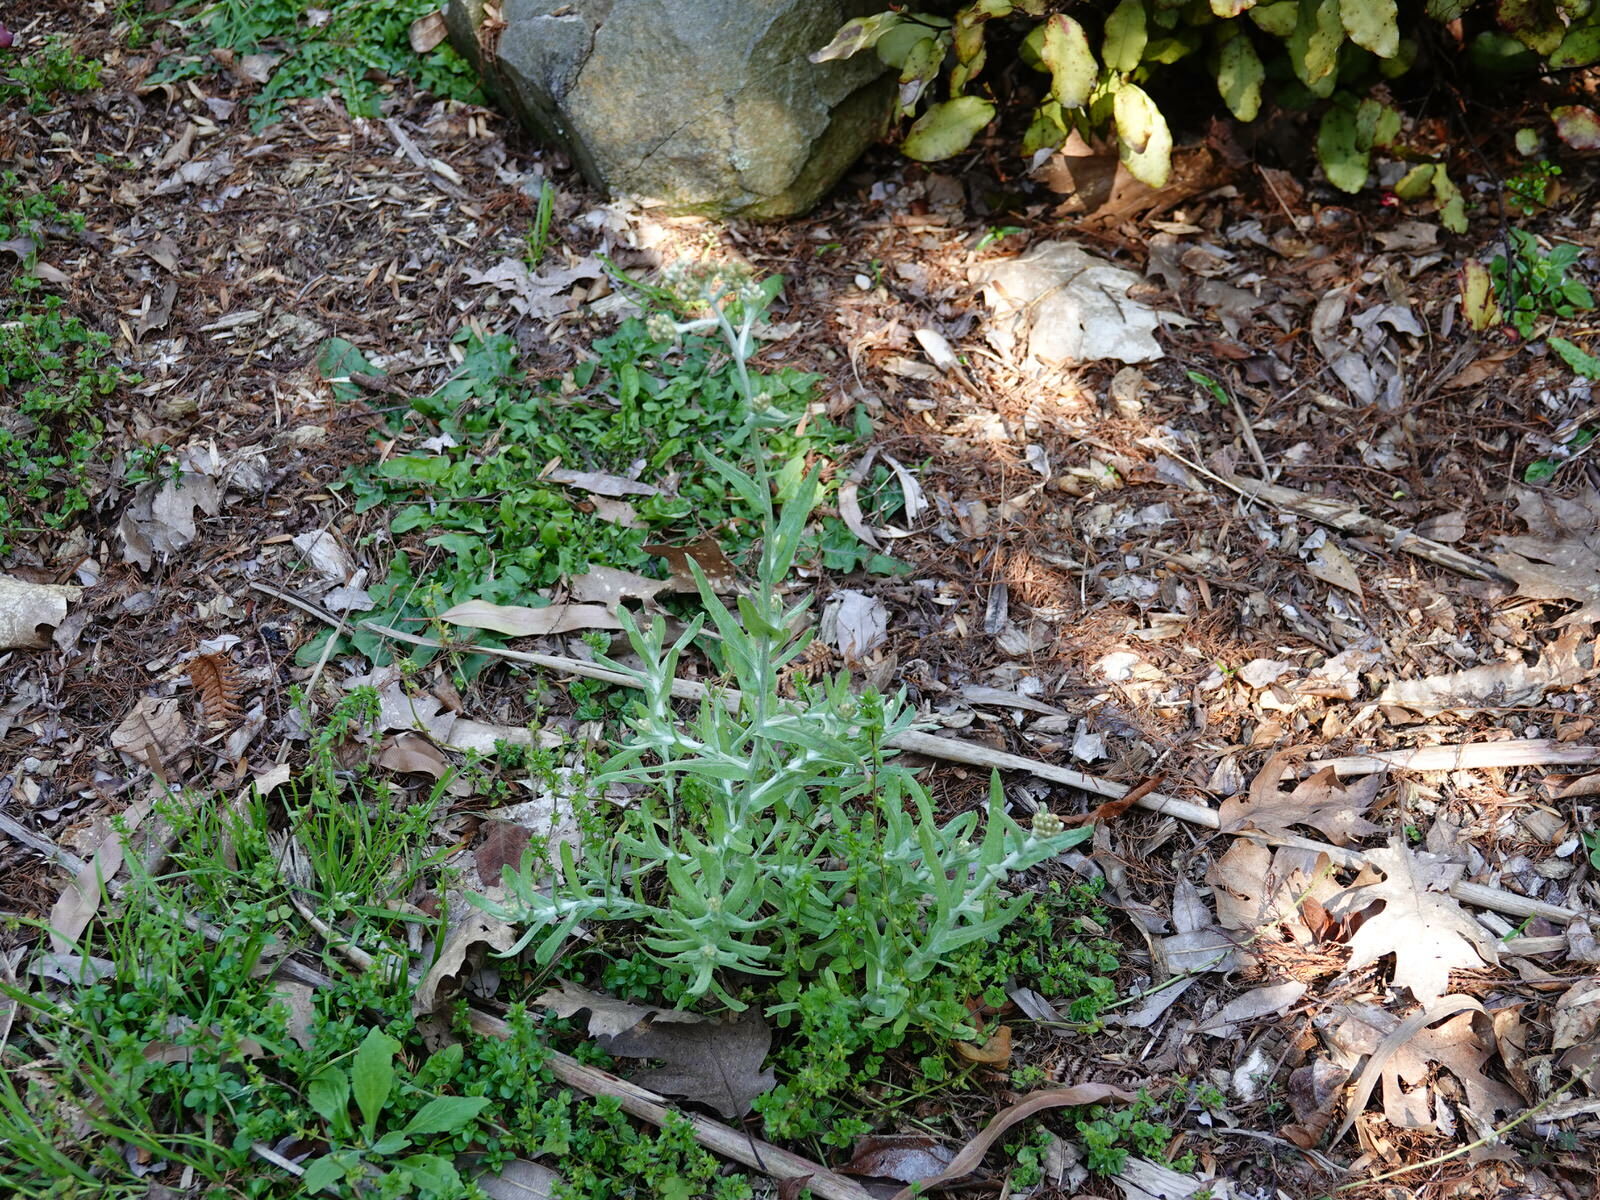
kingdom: Plantae
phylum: Tracheophyta
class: Magnoliopsida
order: Asterales
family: Asteraceae
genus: Helichrysum
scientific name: Helichrysum luteoalbum
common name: Daisy
